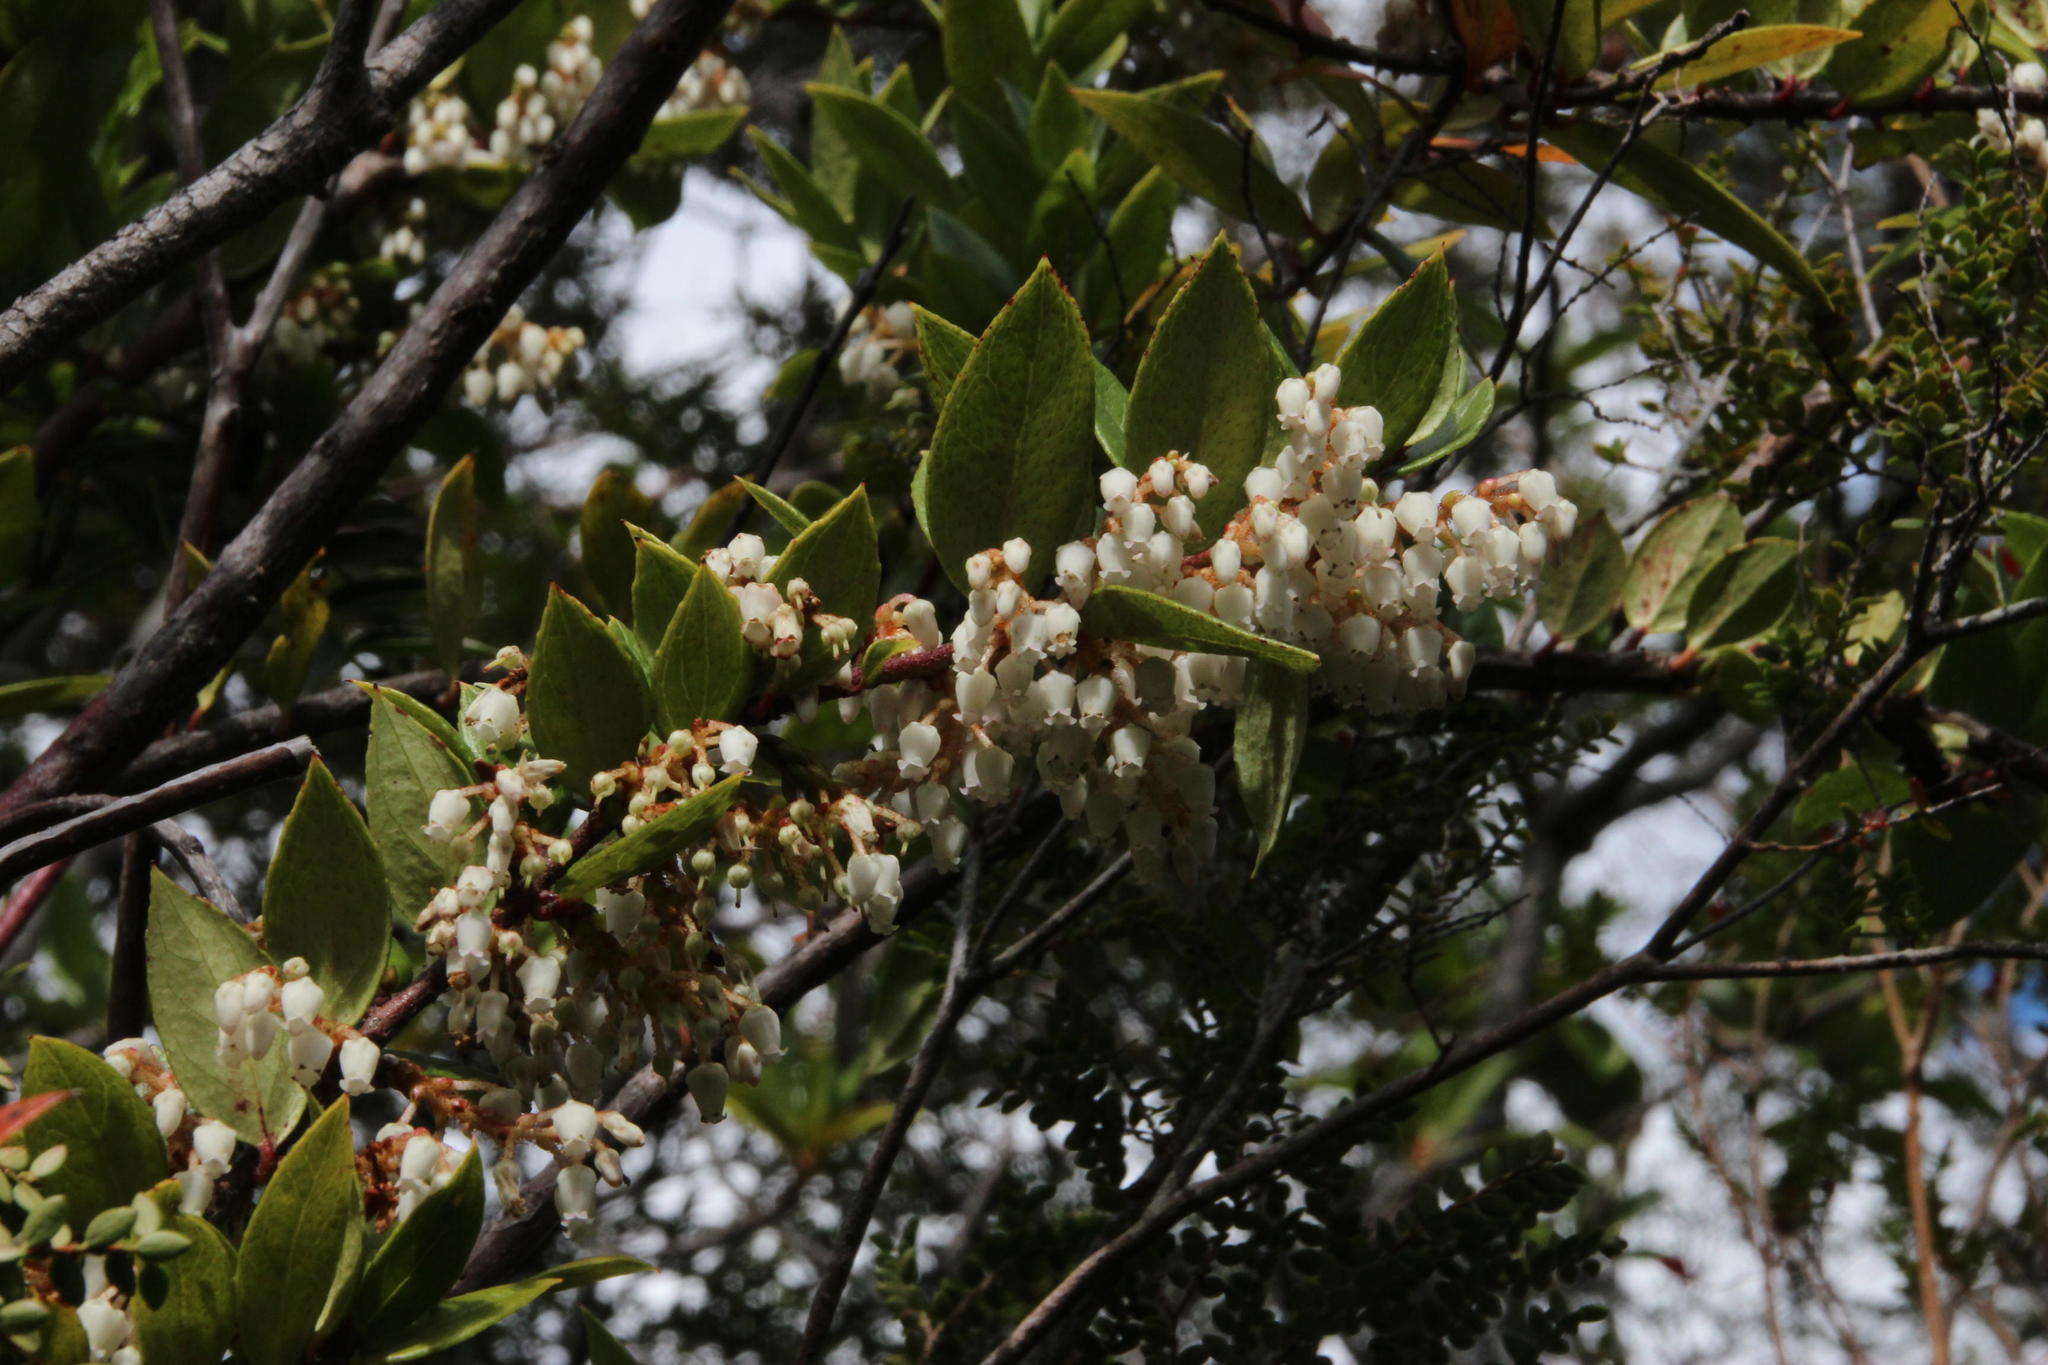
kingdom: Plantae
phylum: Tracheophyta
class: Magnoliopsida
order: Ericales
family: Ericaceae
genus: Gaultheria
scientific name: Gaultheria insana
